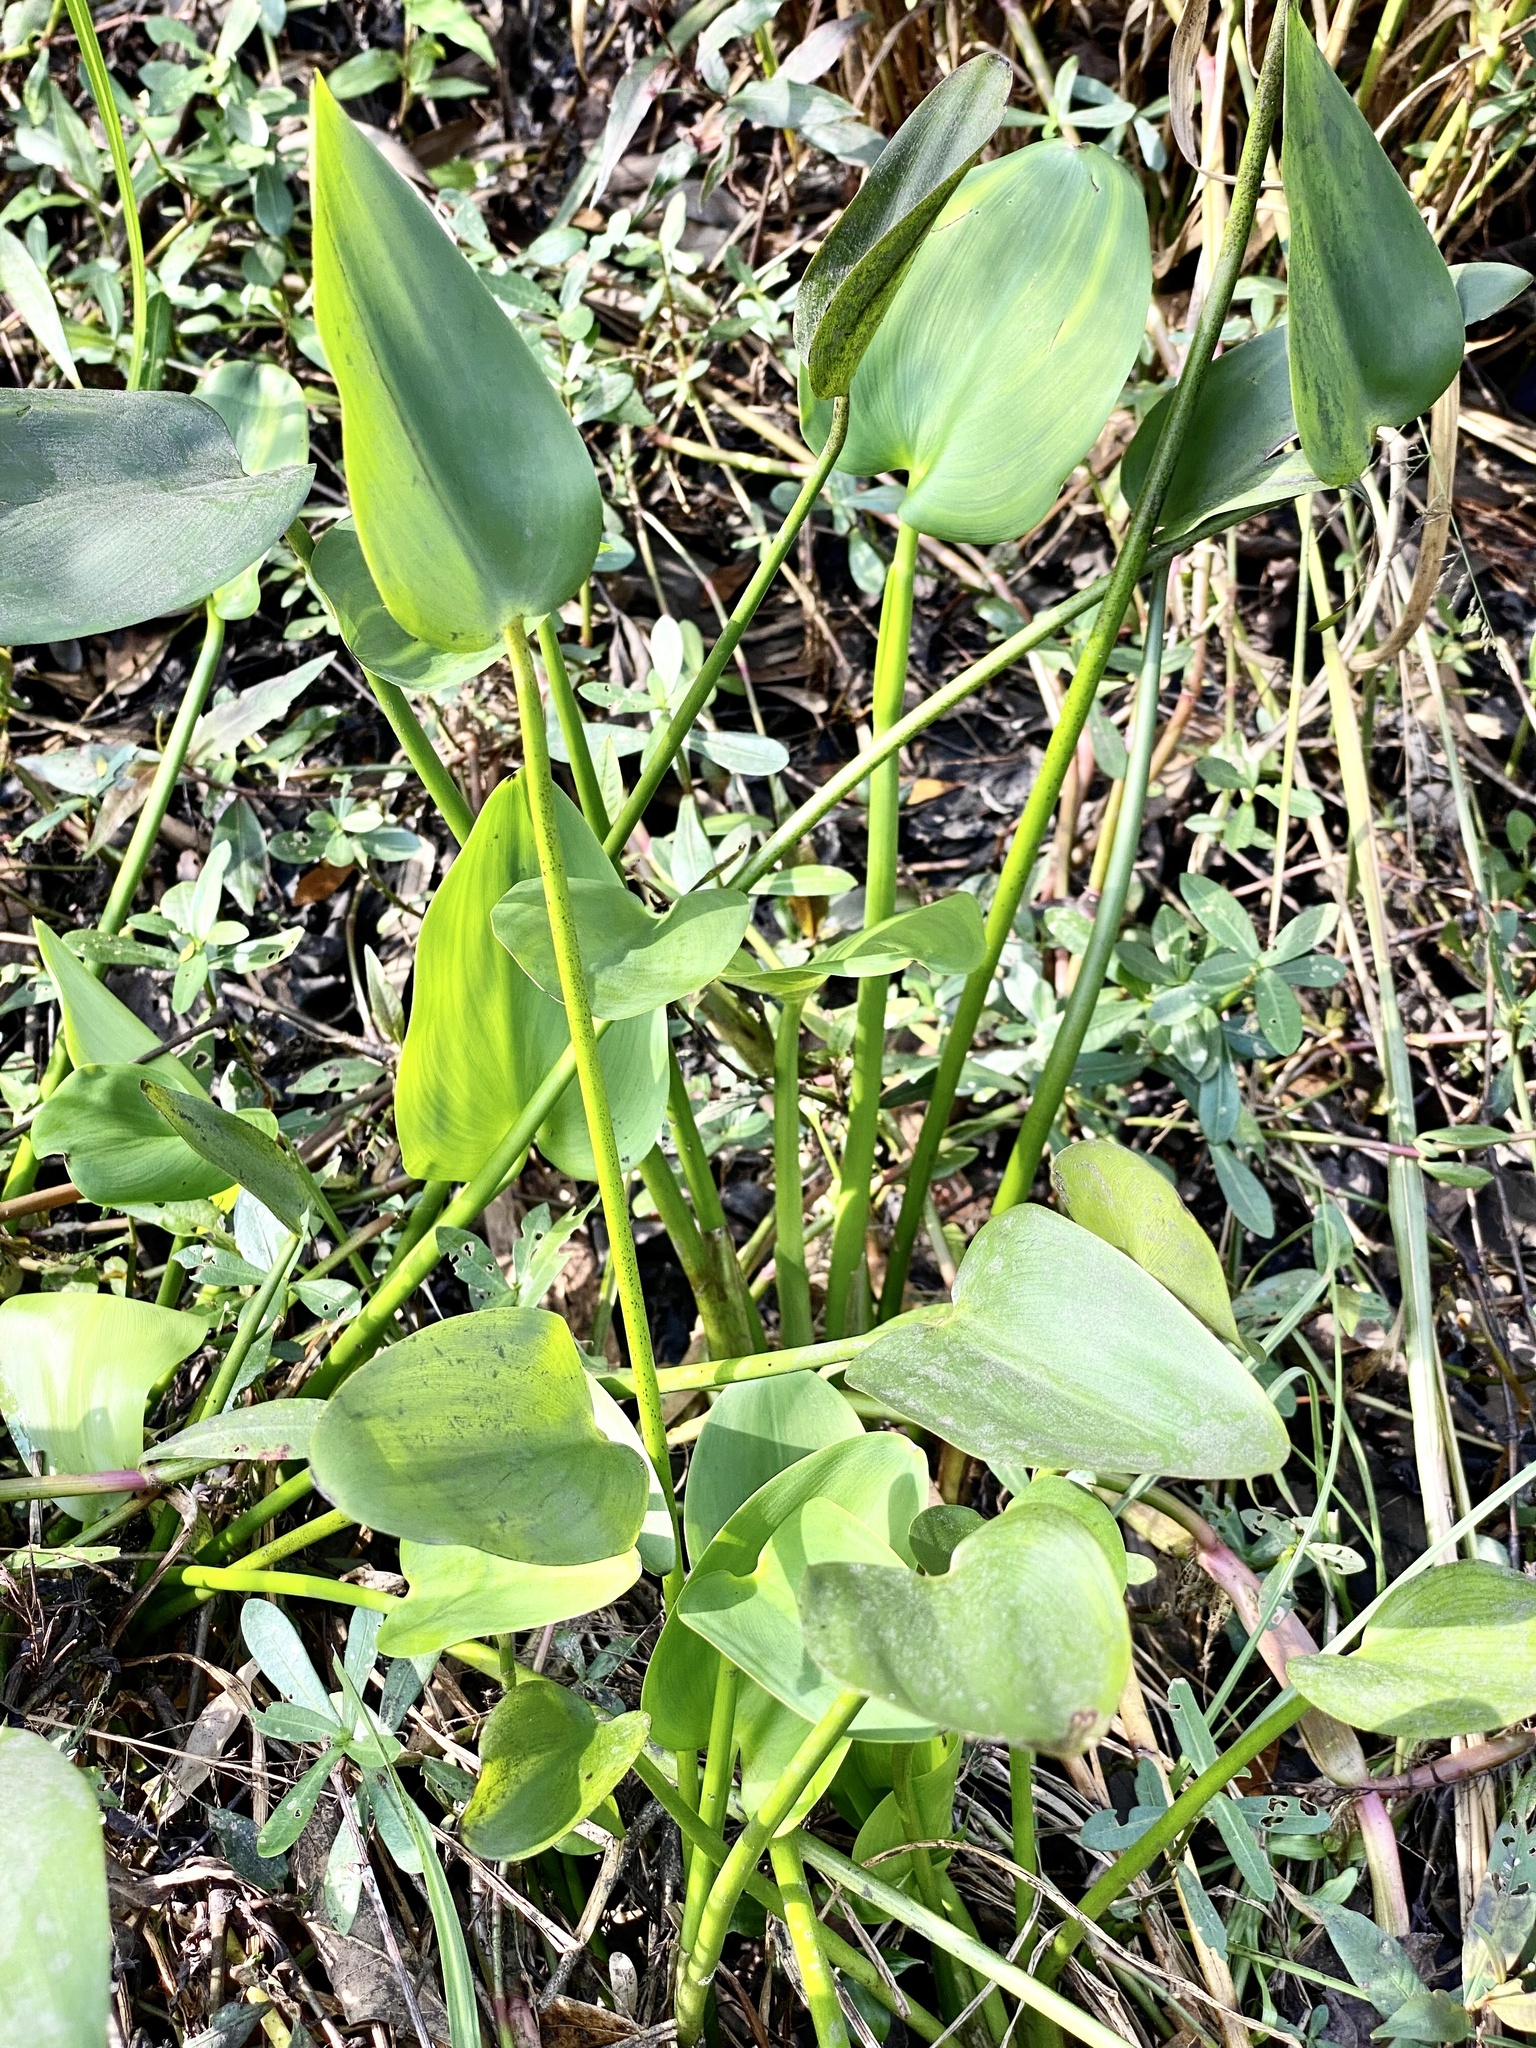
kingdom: Plantae
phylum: Tracheophyta
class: Liliopsida
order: Commelinales
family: Pontederiaceae
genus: Pontederia
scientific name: Pontederia cordata
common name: Pickerelweed
